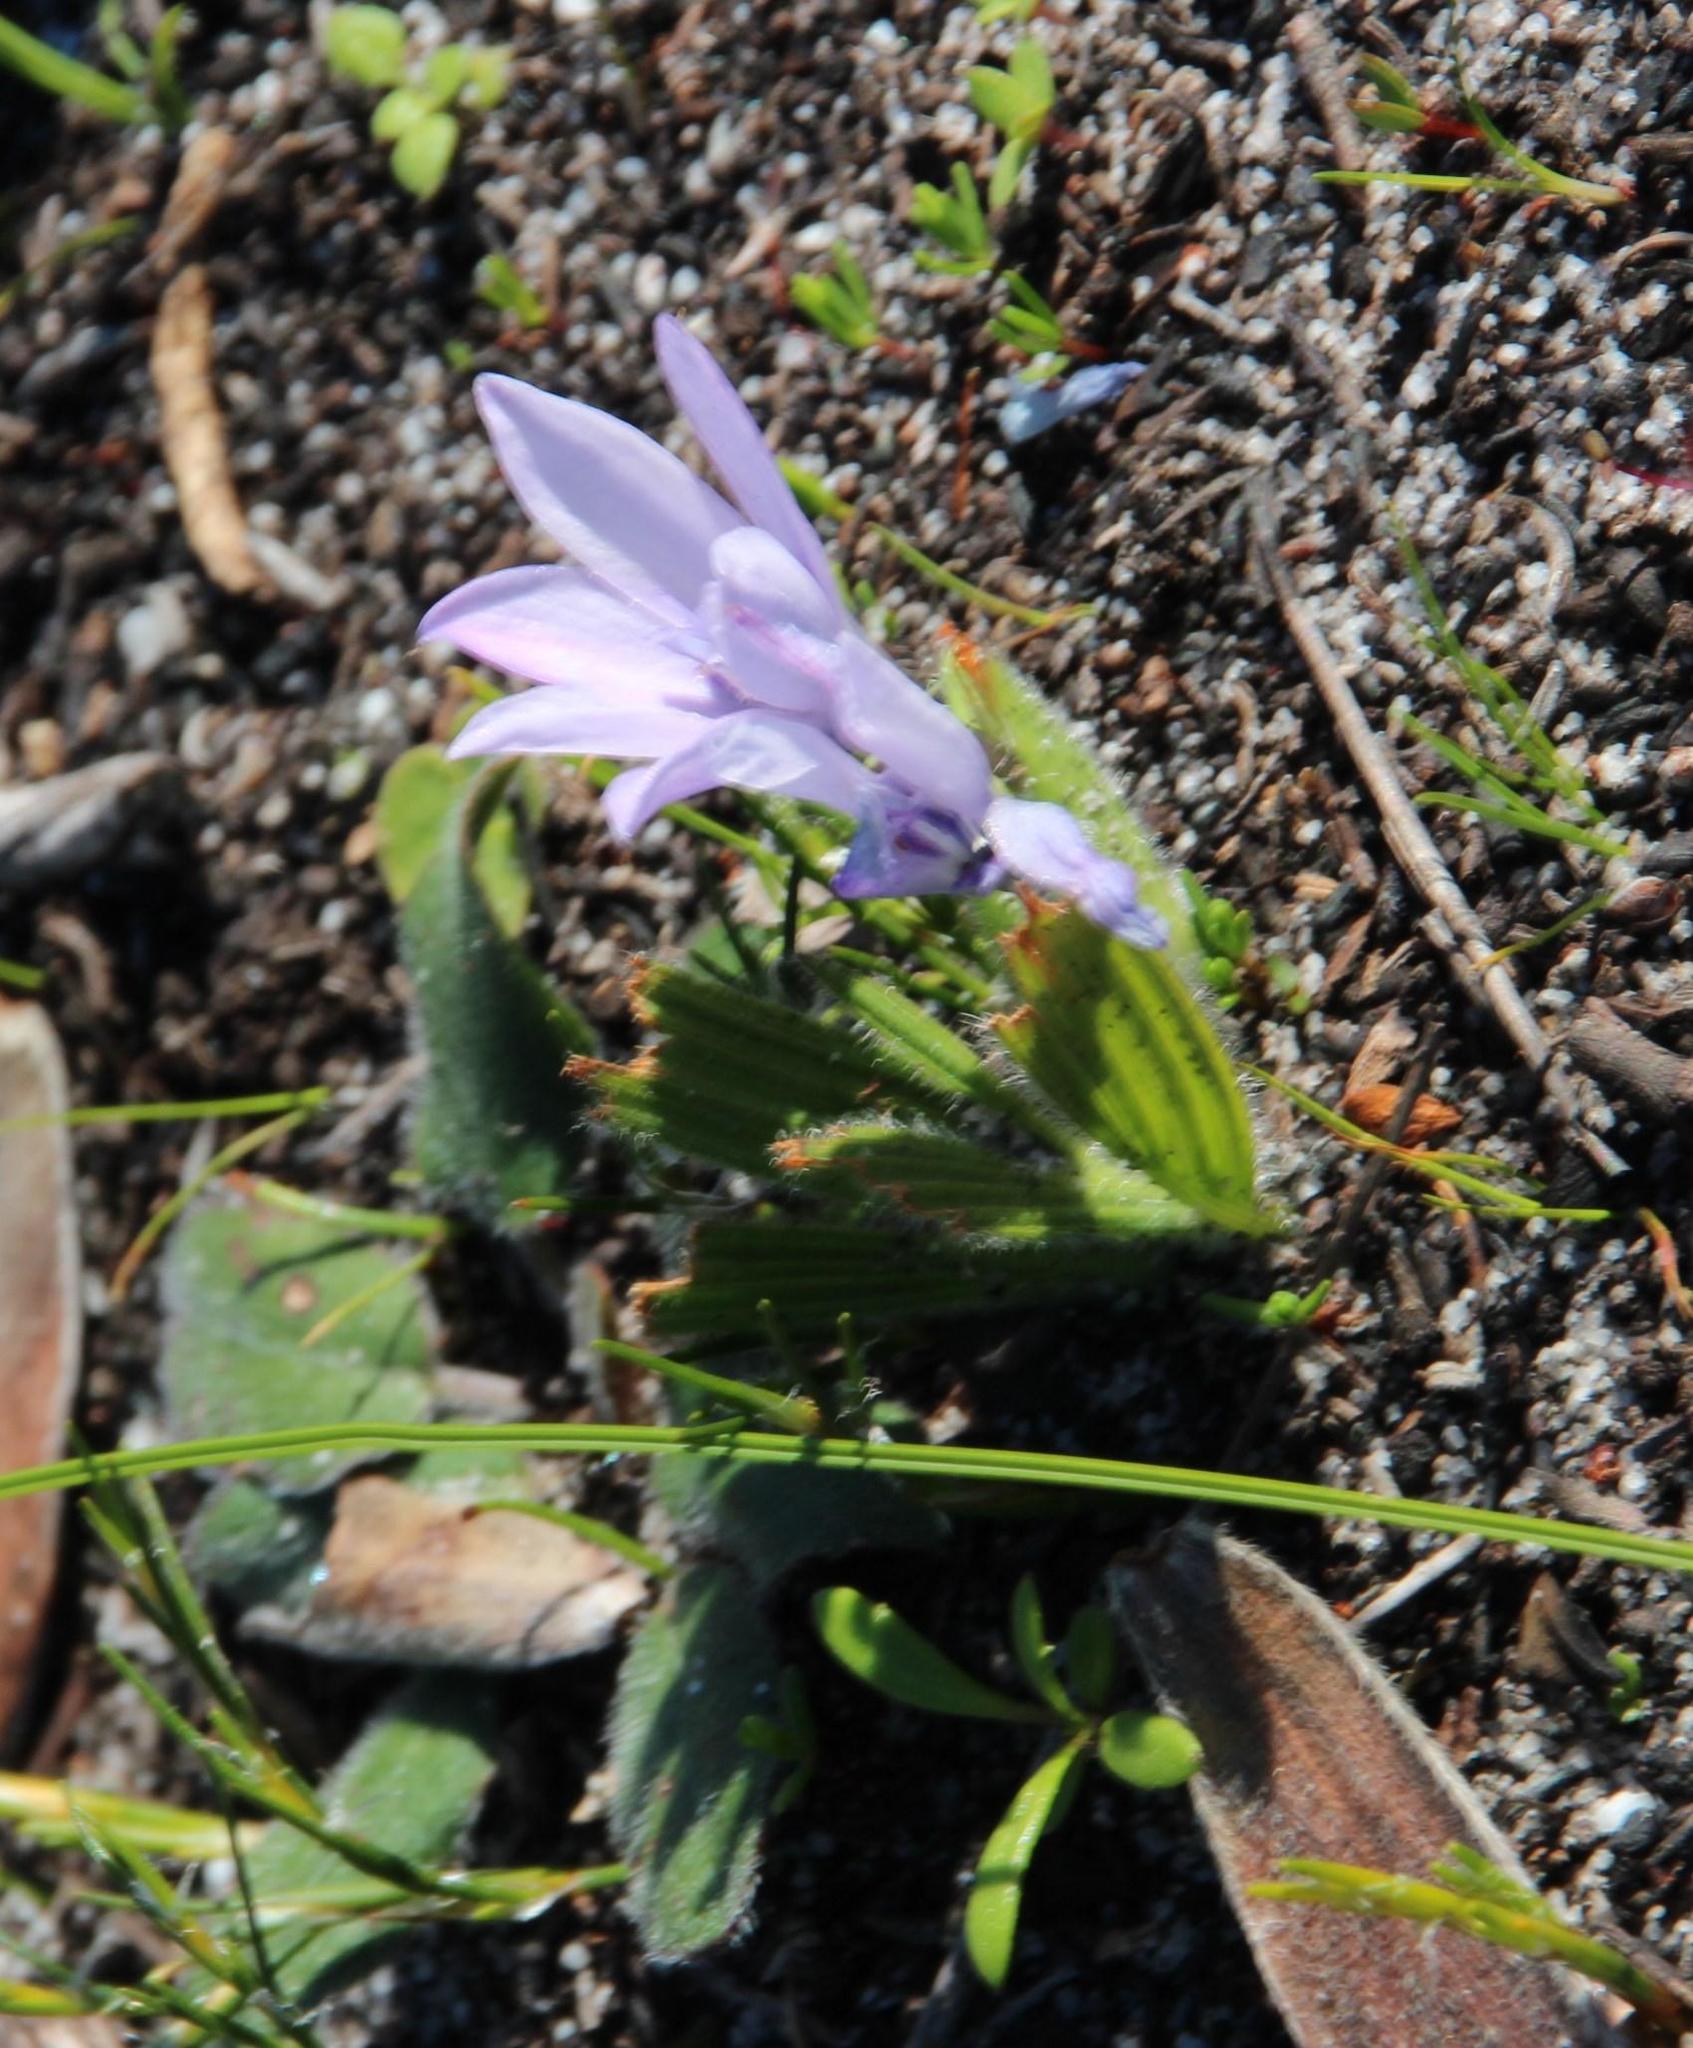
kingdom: Plantae
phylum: Tracheophyta
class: Liliopsida
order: Asparagales
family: Iridaceae
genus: Babiana
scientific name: Babiana villosula
